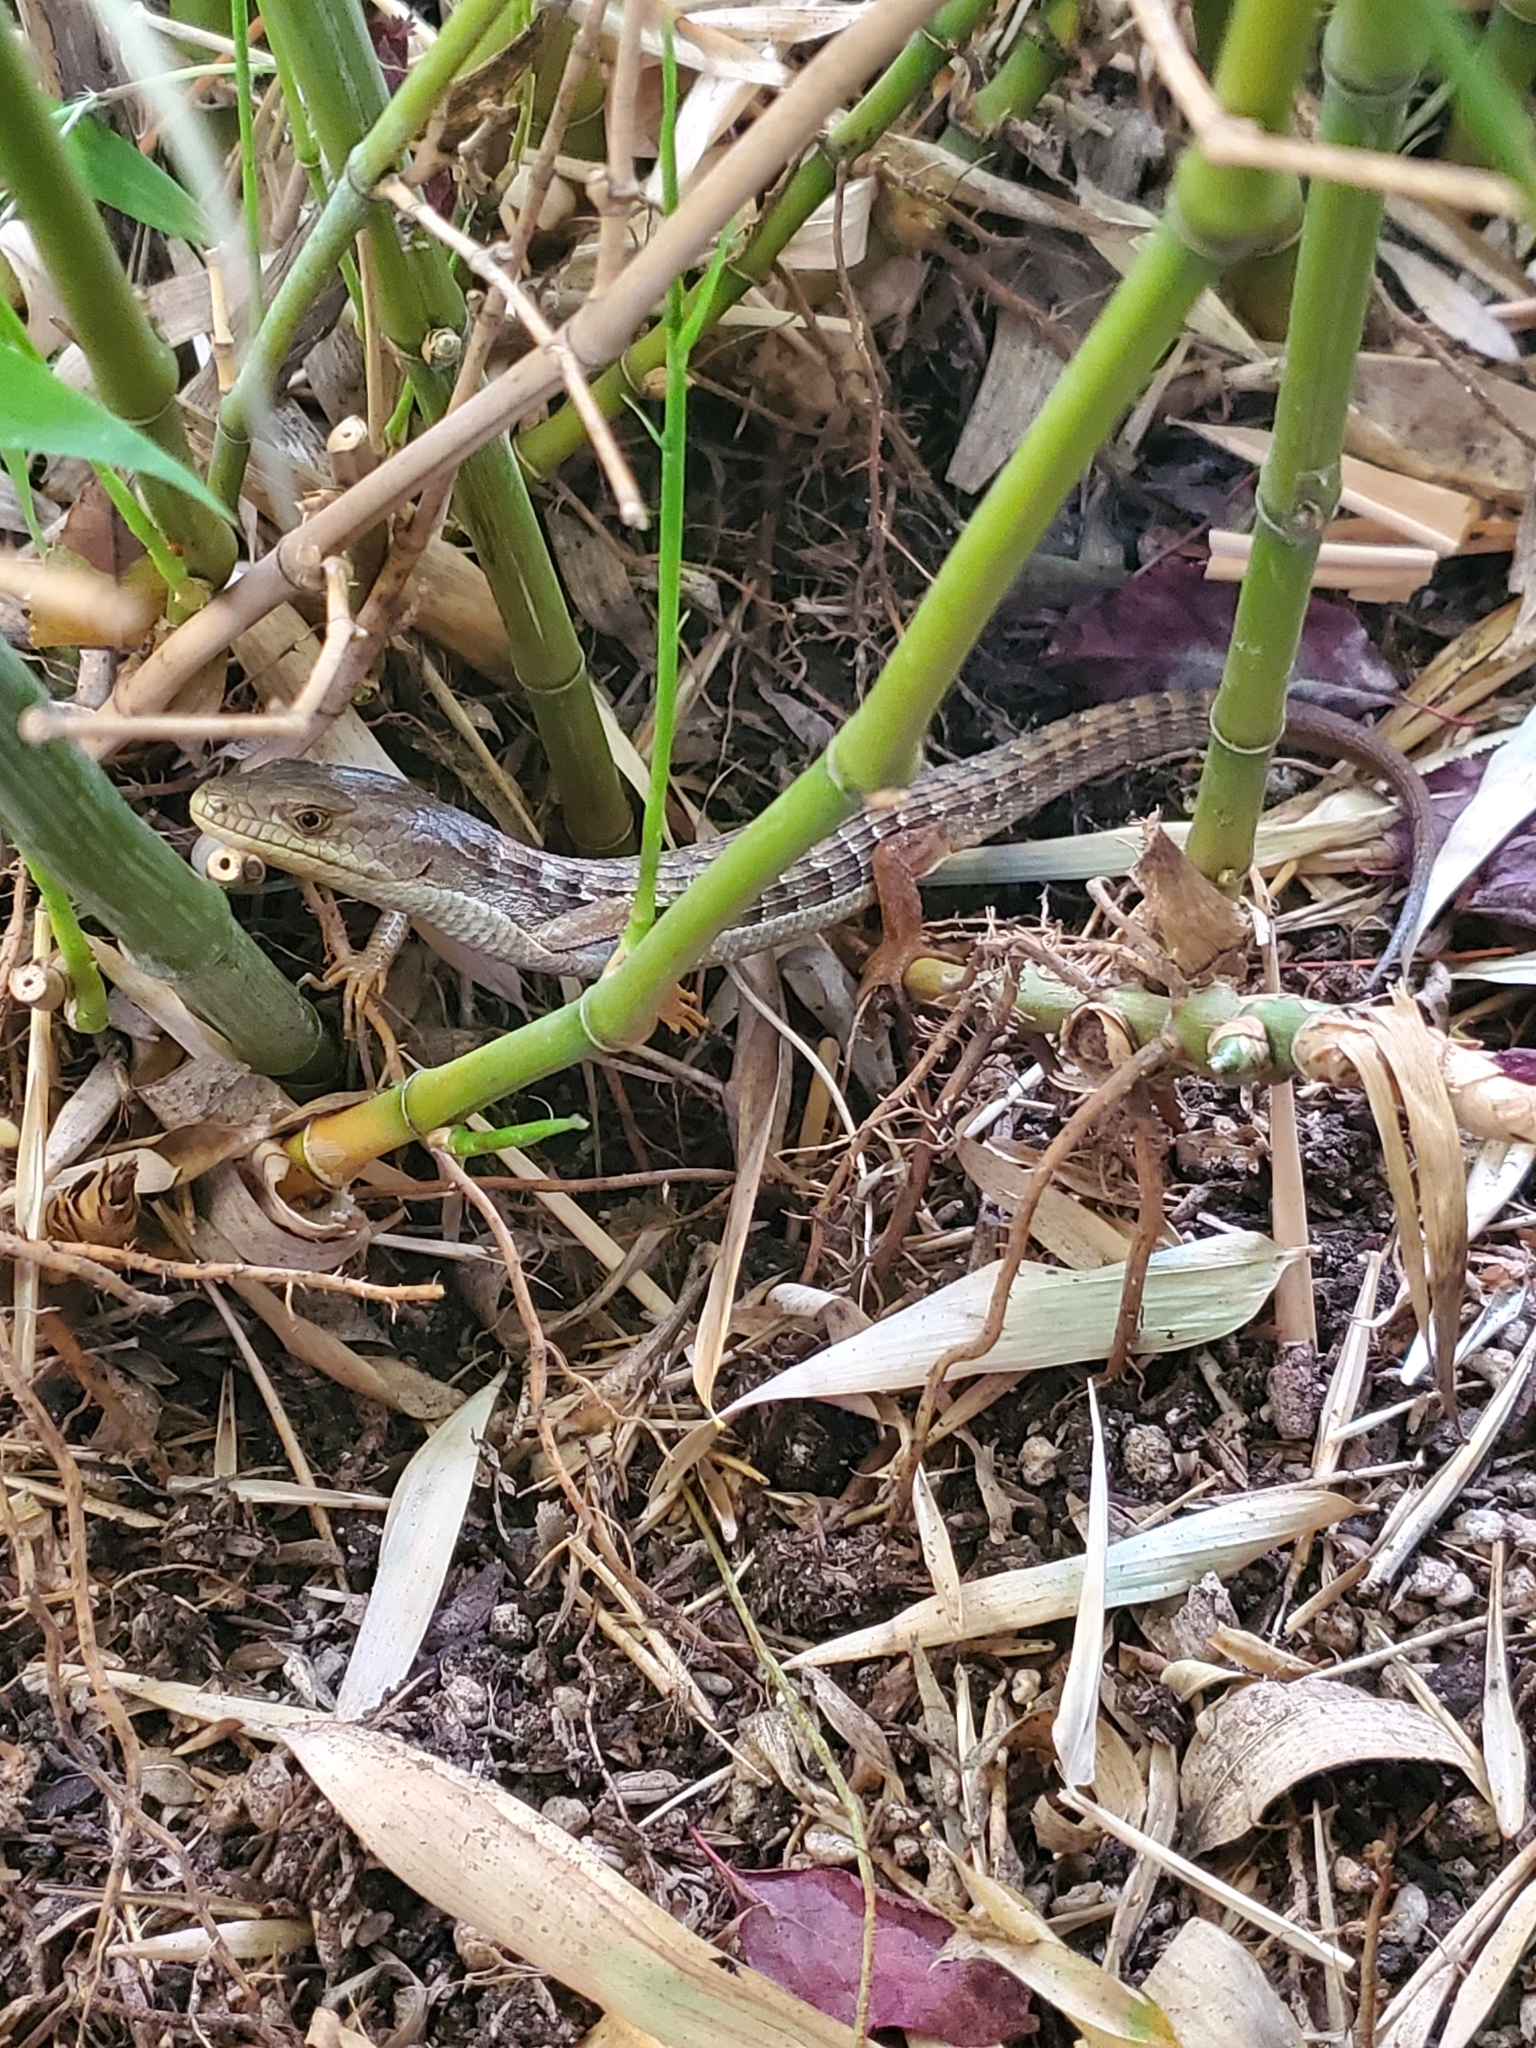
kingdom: Animalia
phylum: Chordata
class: Squamata
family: Anguidae
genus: Elgaria
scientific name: Elgaria multicarinata
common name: Southern alligator lizard
